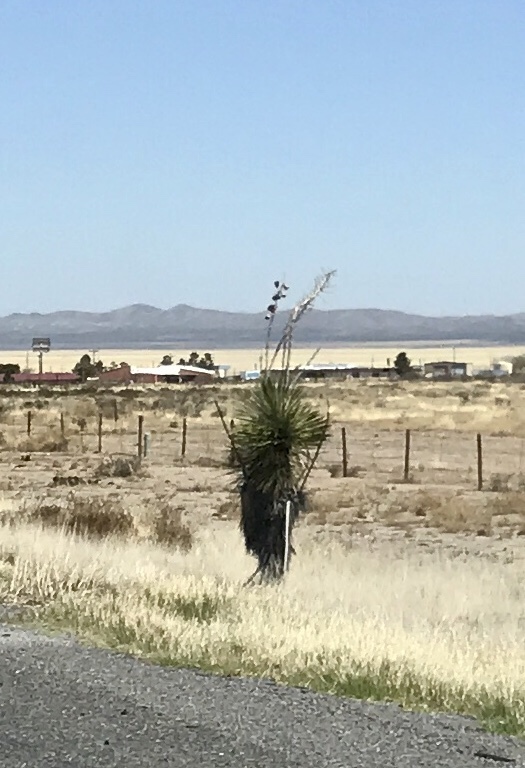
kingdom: Plantae
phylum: Tracheophyta
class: Liliopsida
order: Asparagales
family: Asparagaceae
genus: Yucca
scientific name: Yucca elata
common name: Palmella
